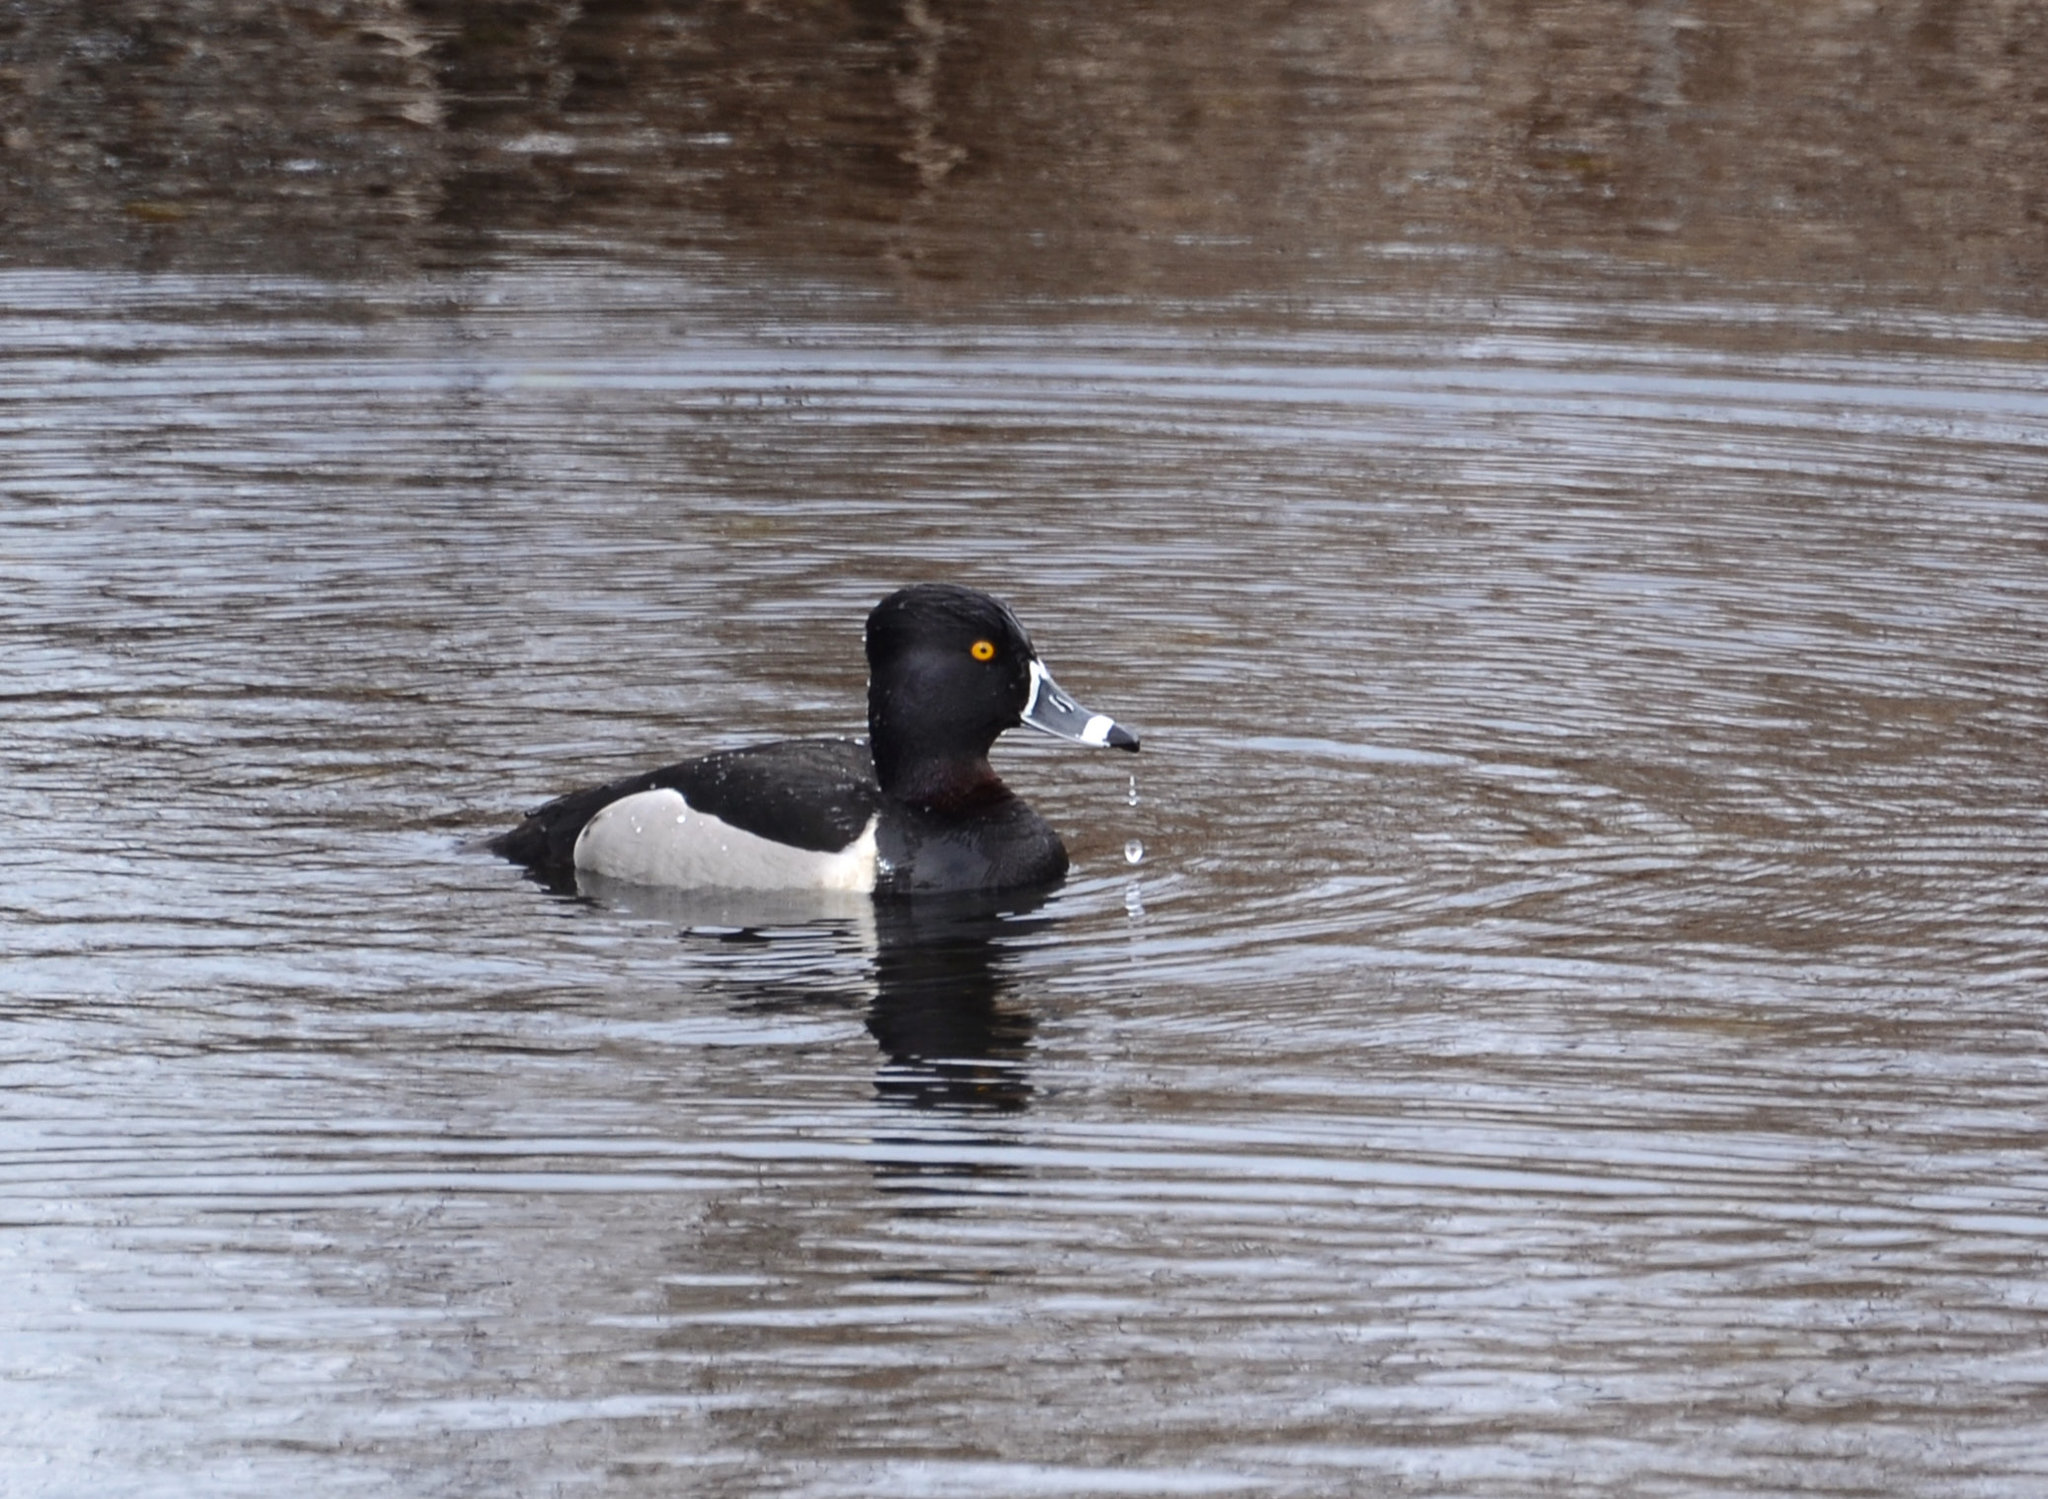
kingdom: Animalia
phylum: Chordata
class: Aves
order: Anseriformes
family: Anatidae
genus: Aythya
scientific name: Aythya collaris
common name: Ring-necked duck
